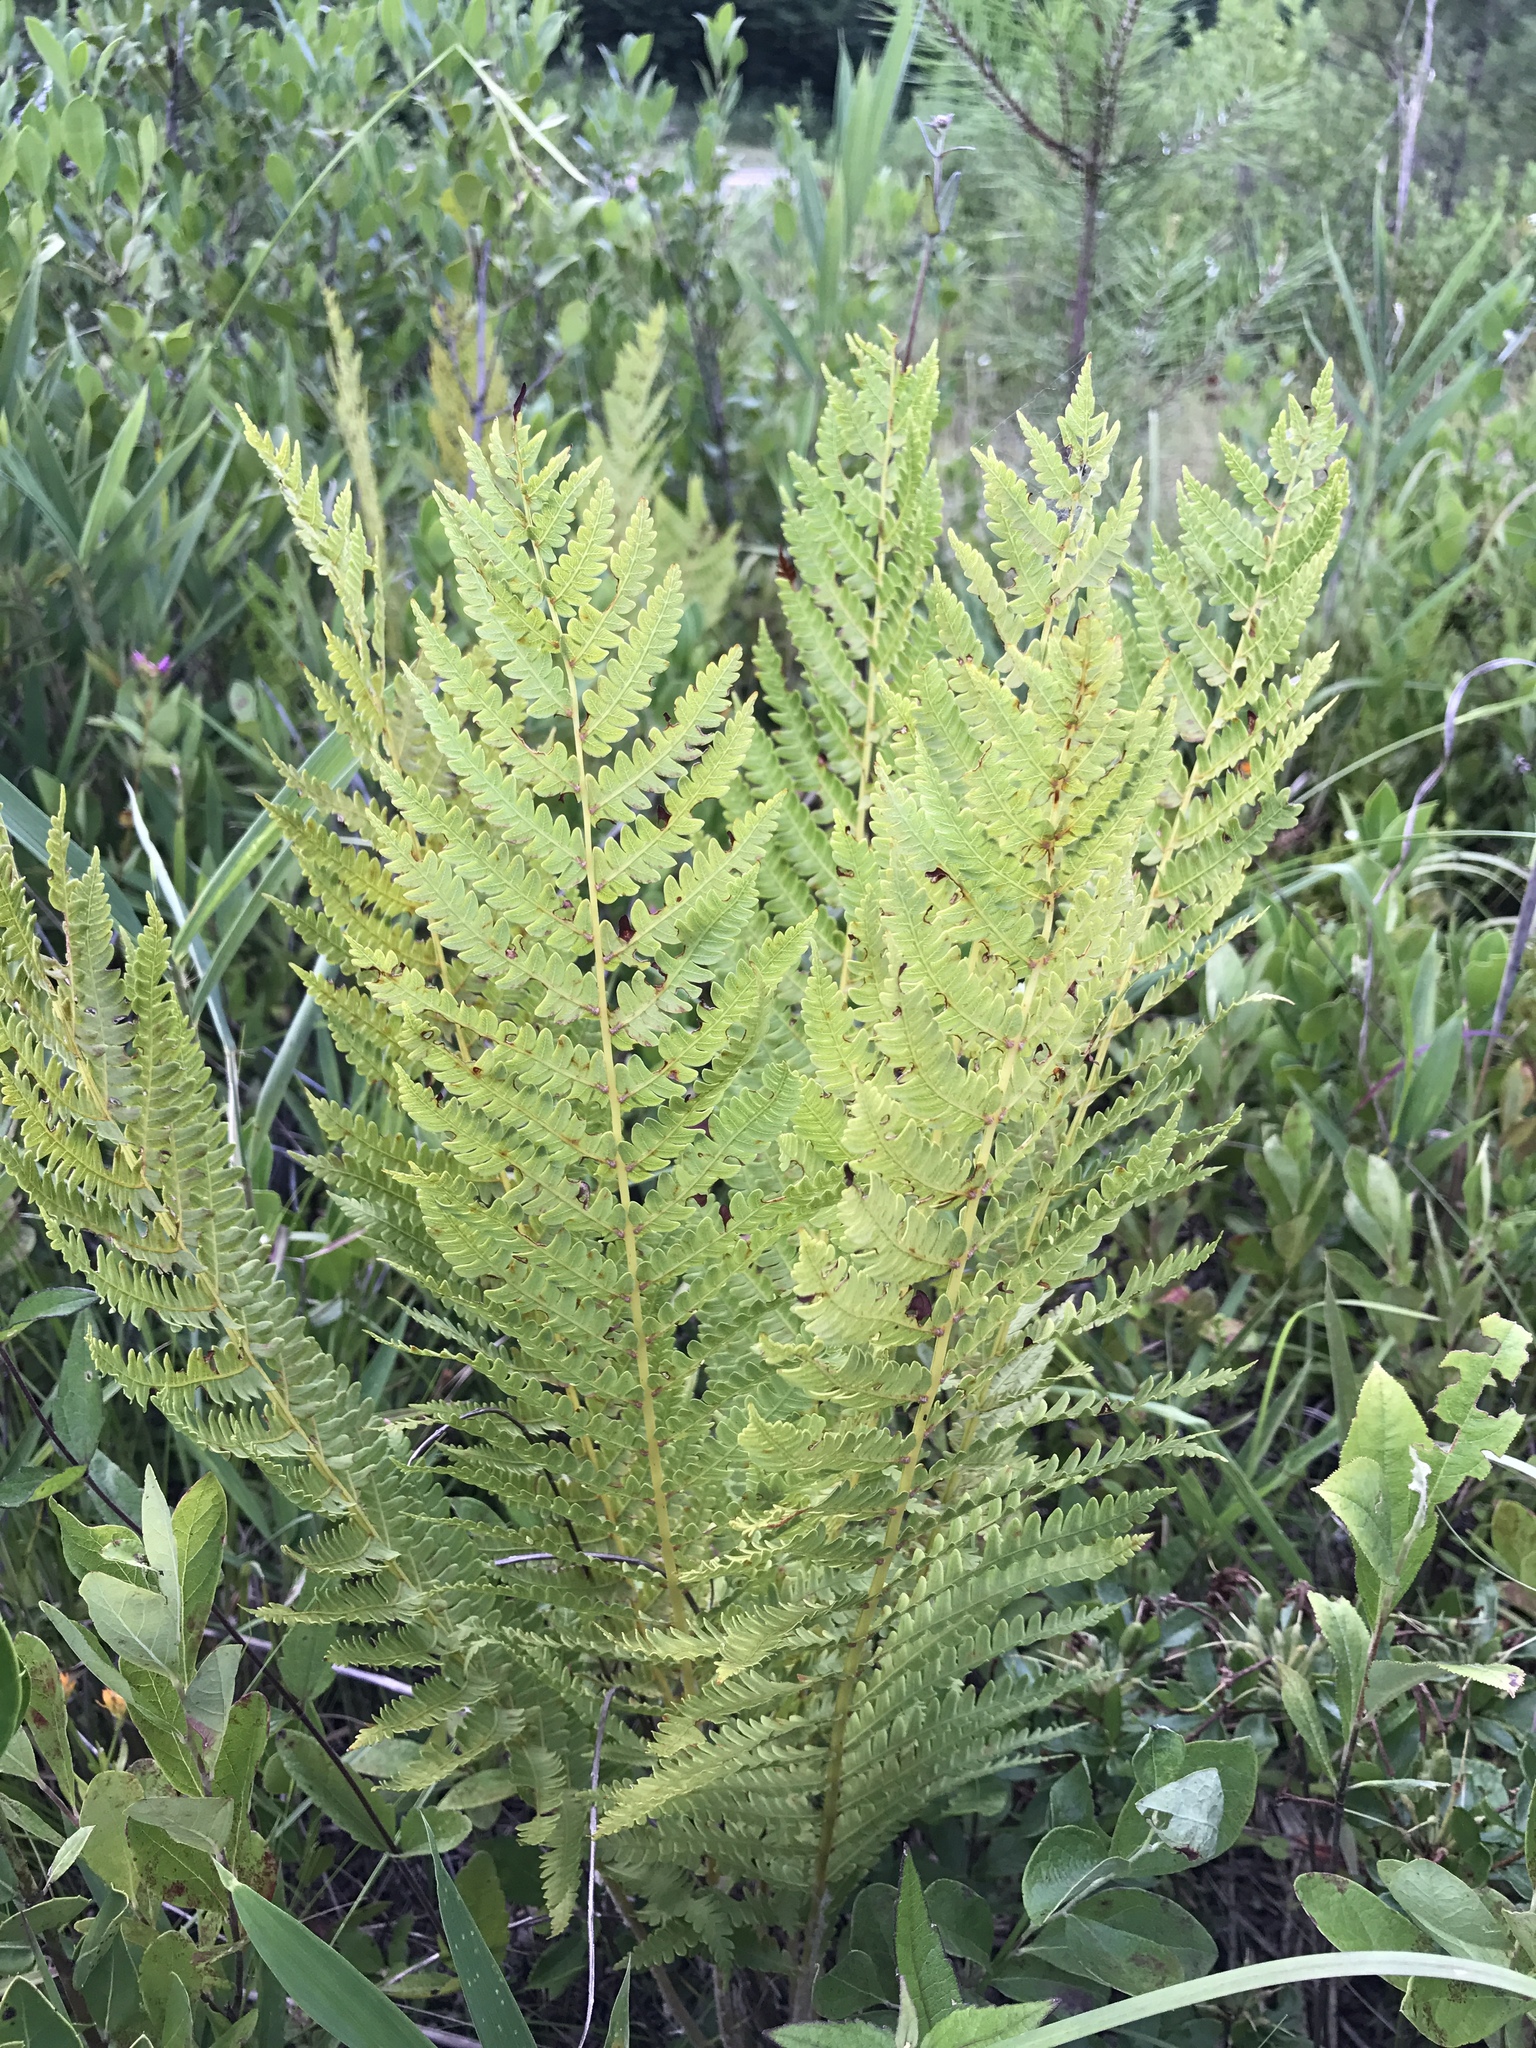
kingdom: Plantae
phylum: Tracheophyta
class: Polypodiopsida
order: Osmundales
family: Osmundaceae
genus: Osmundastrum
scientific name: Osmundastrum cinnamomeum
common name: Cinnamon fern
